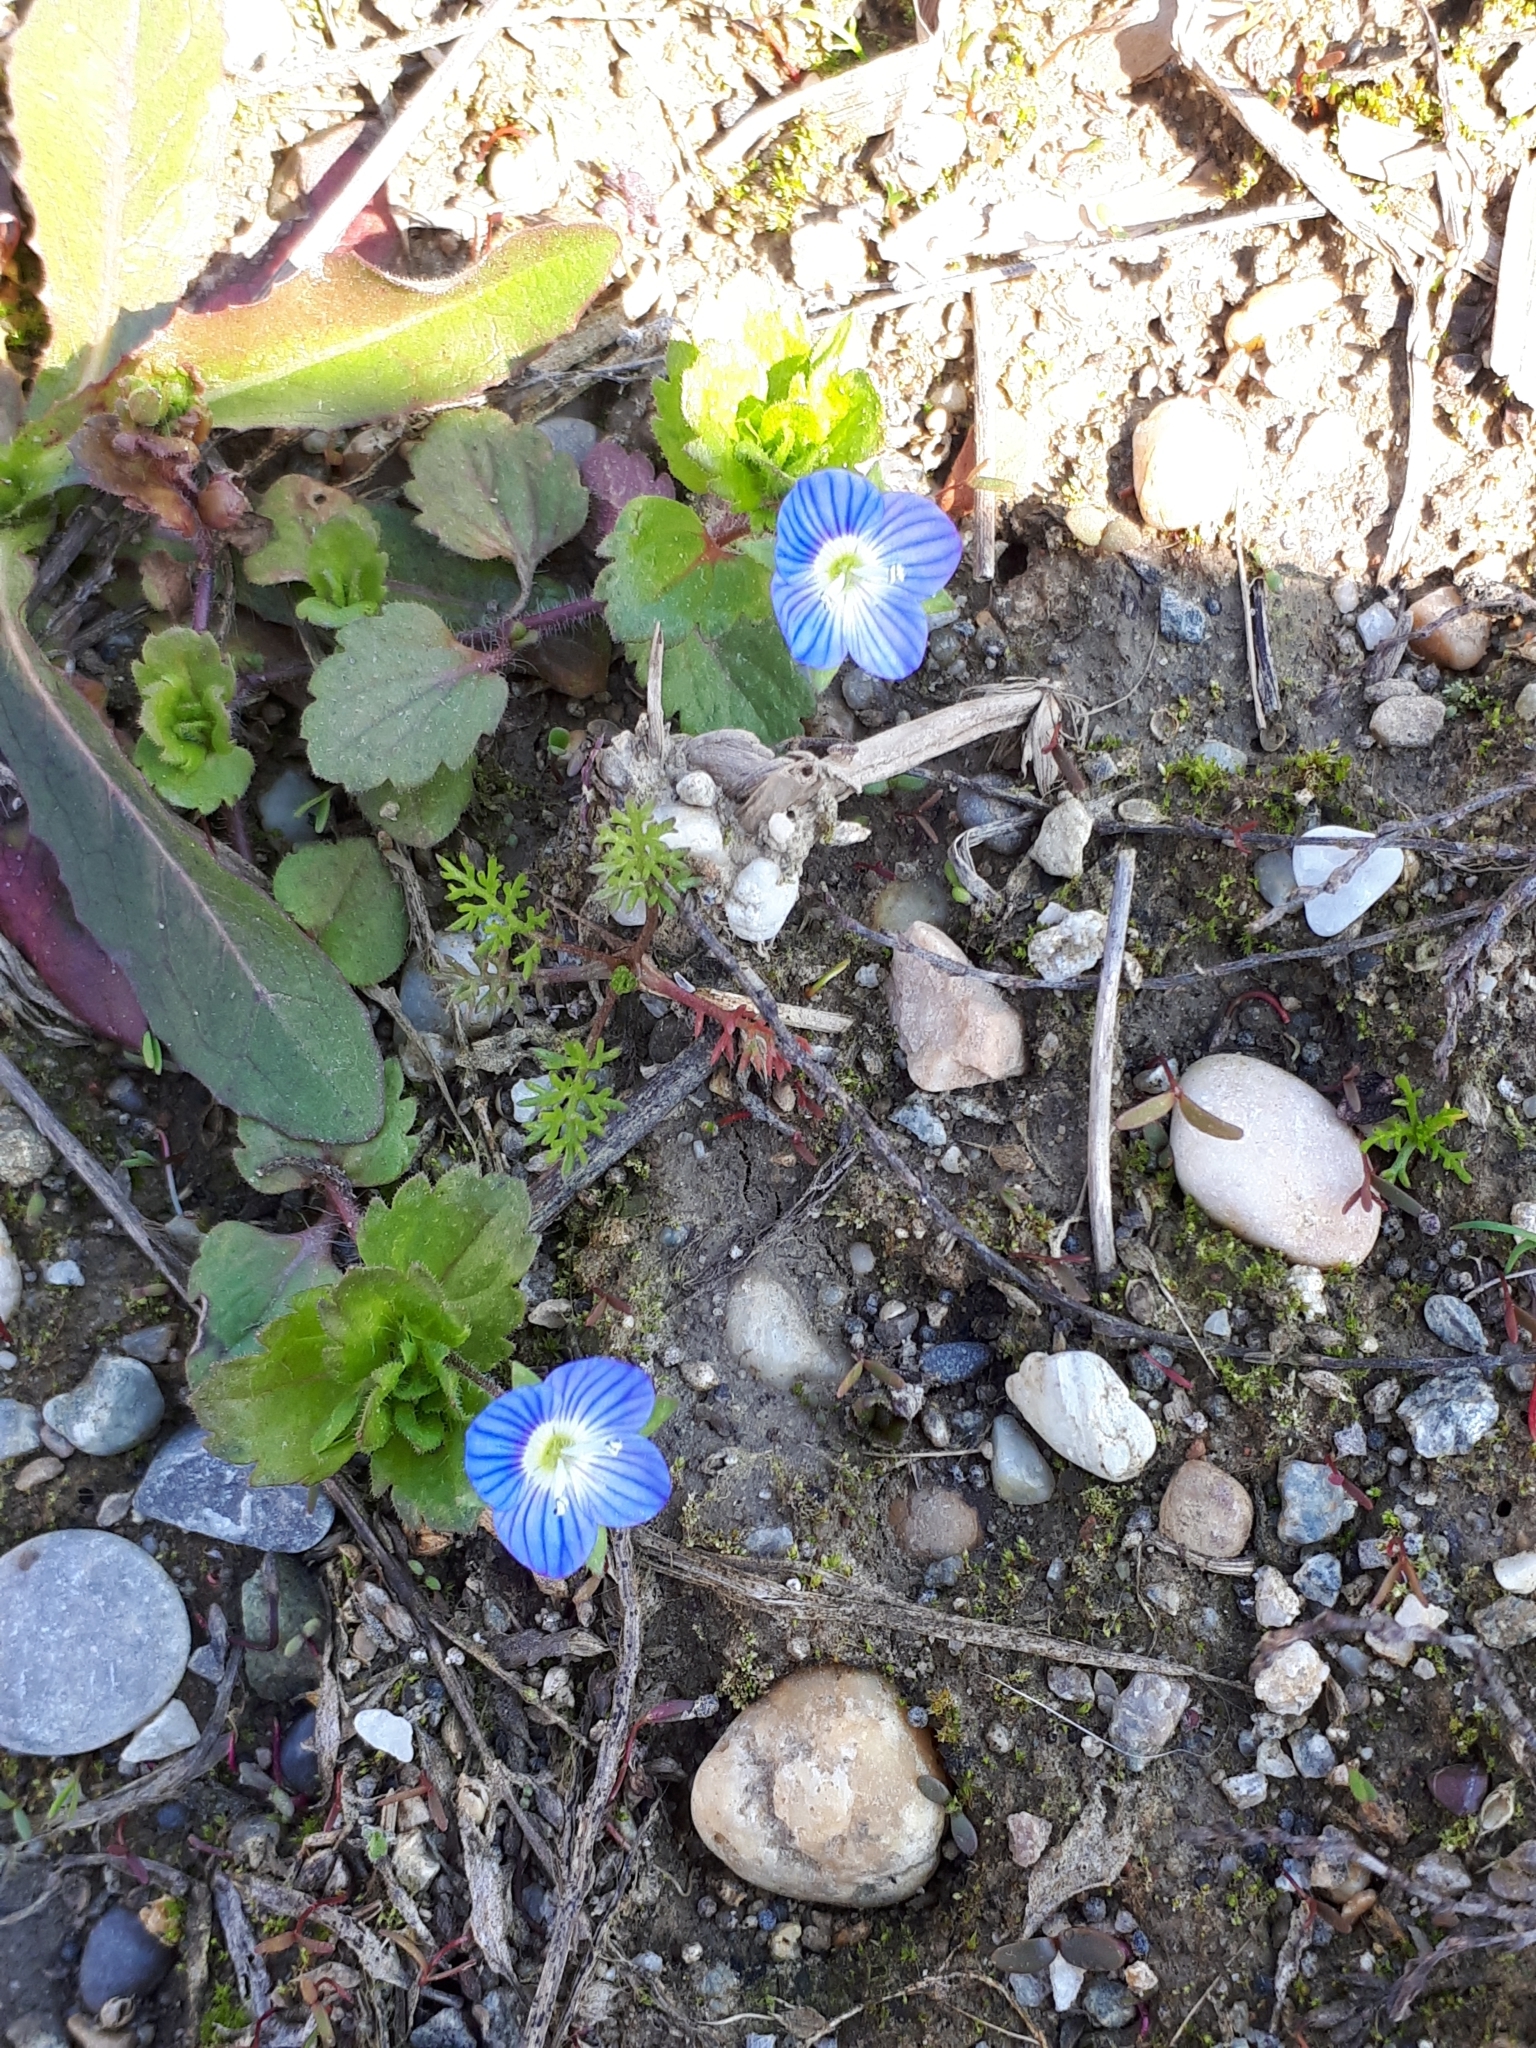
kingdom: Plantae
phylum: Tracheophyta
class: Magnoliopsida
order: Lamiales
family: Plantaginaceae
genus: Veronica
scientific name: Veronica persica
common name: Common field-speedwell
